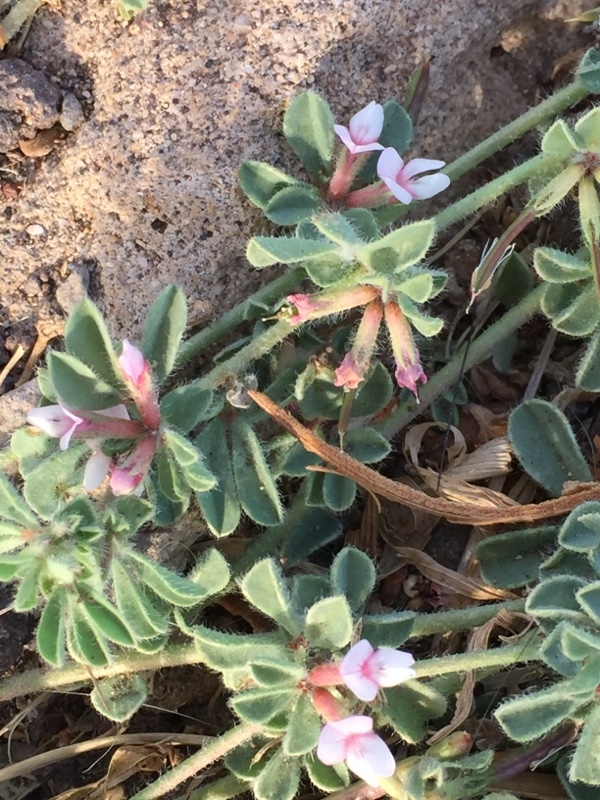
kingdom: Plantae
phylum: Tracheophyta
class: Magnoliopsida
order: Fabales
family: Fabaceae
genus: Lotus
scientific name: Lotus glinoides
